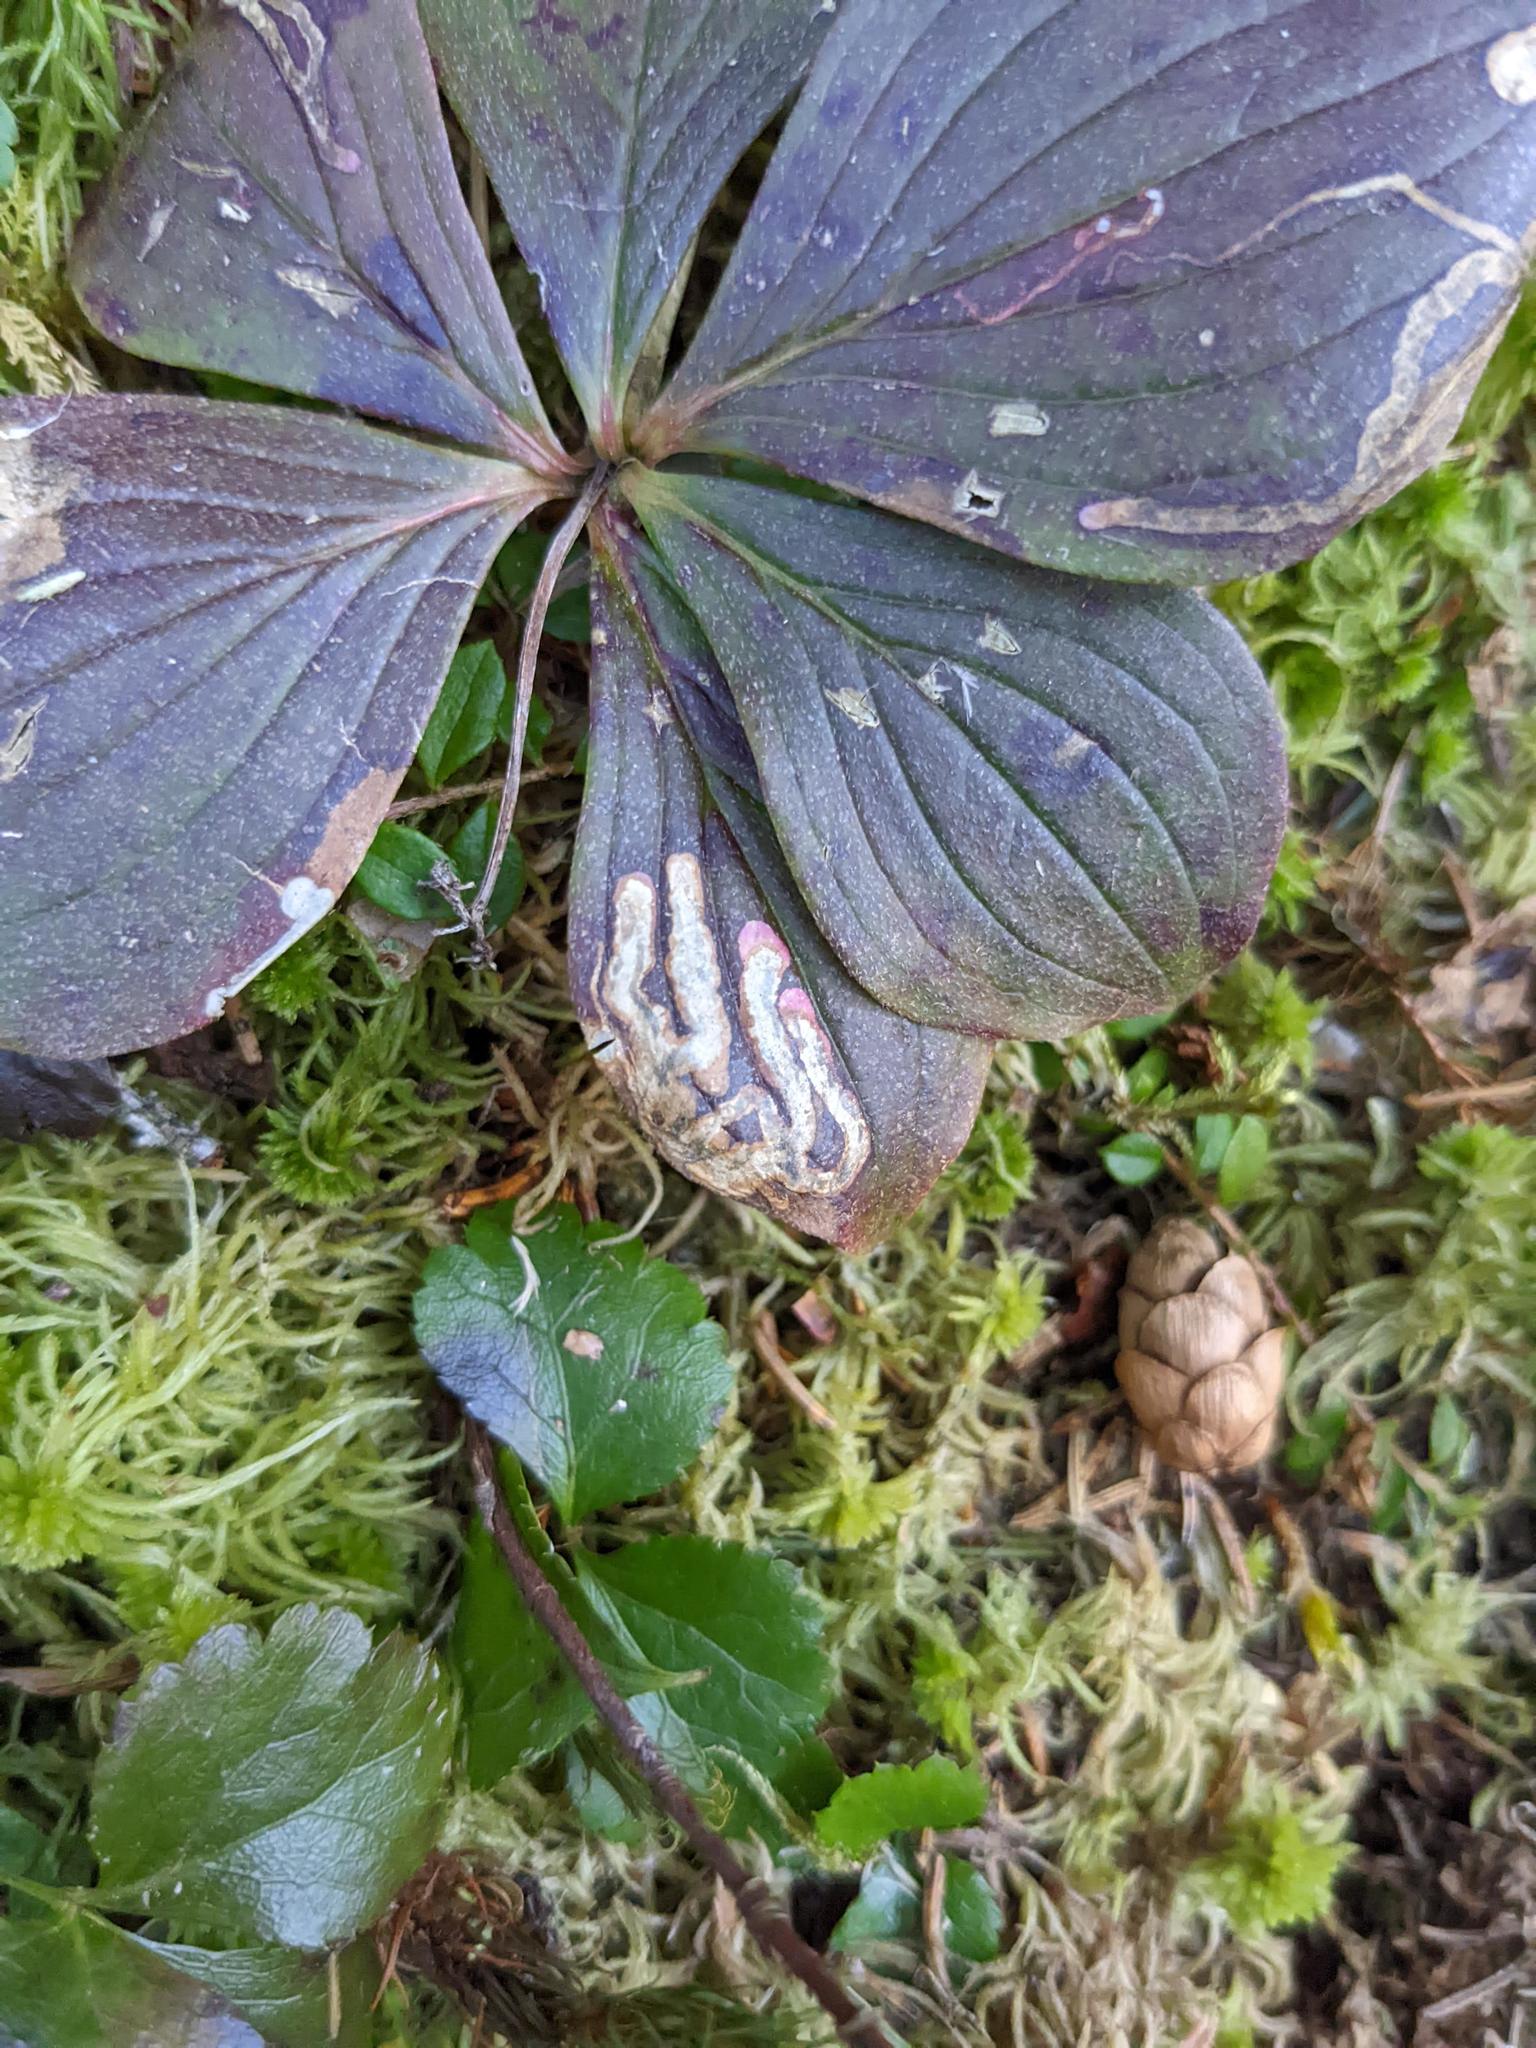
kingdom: Animalia
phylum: Arthropoda
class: Insecta
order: Diptera
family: Agromyzidae
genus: Phytomyza
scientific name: Phytomyza agromyzina
